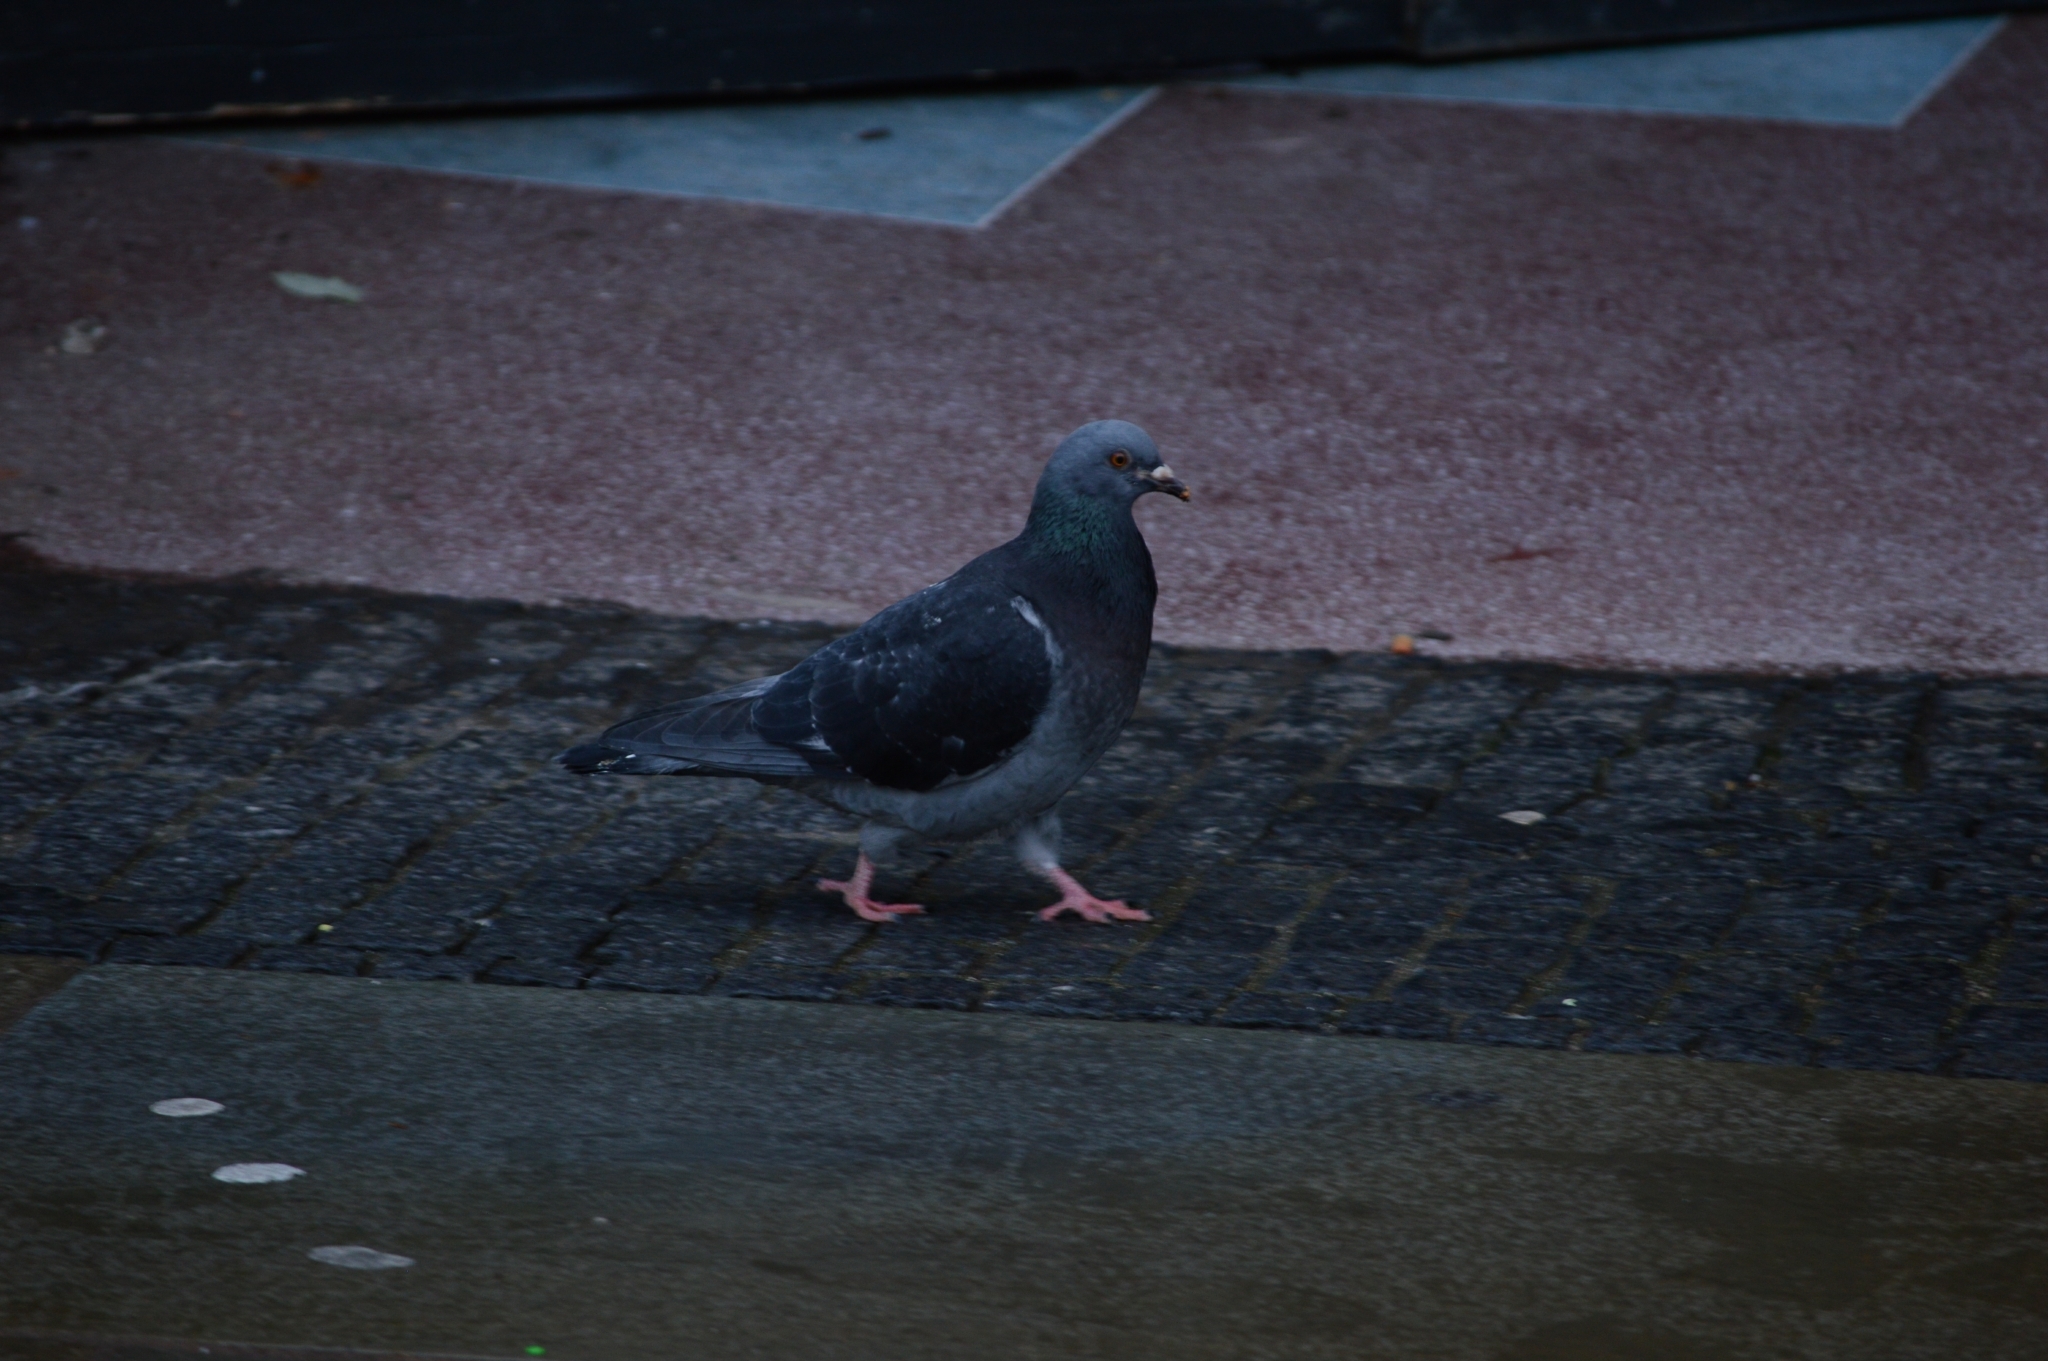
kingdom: Animalia
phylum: Chordata
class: Aves
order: Columbiformes
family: Columbidae
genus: Columba
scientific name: Columba livia
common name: Rock pigeon
